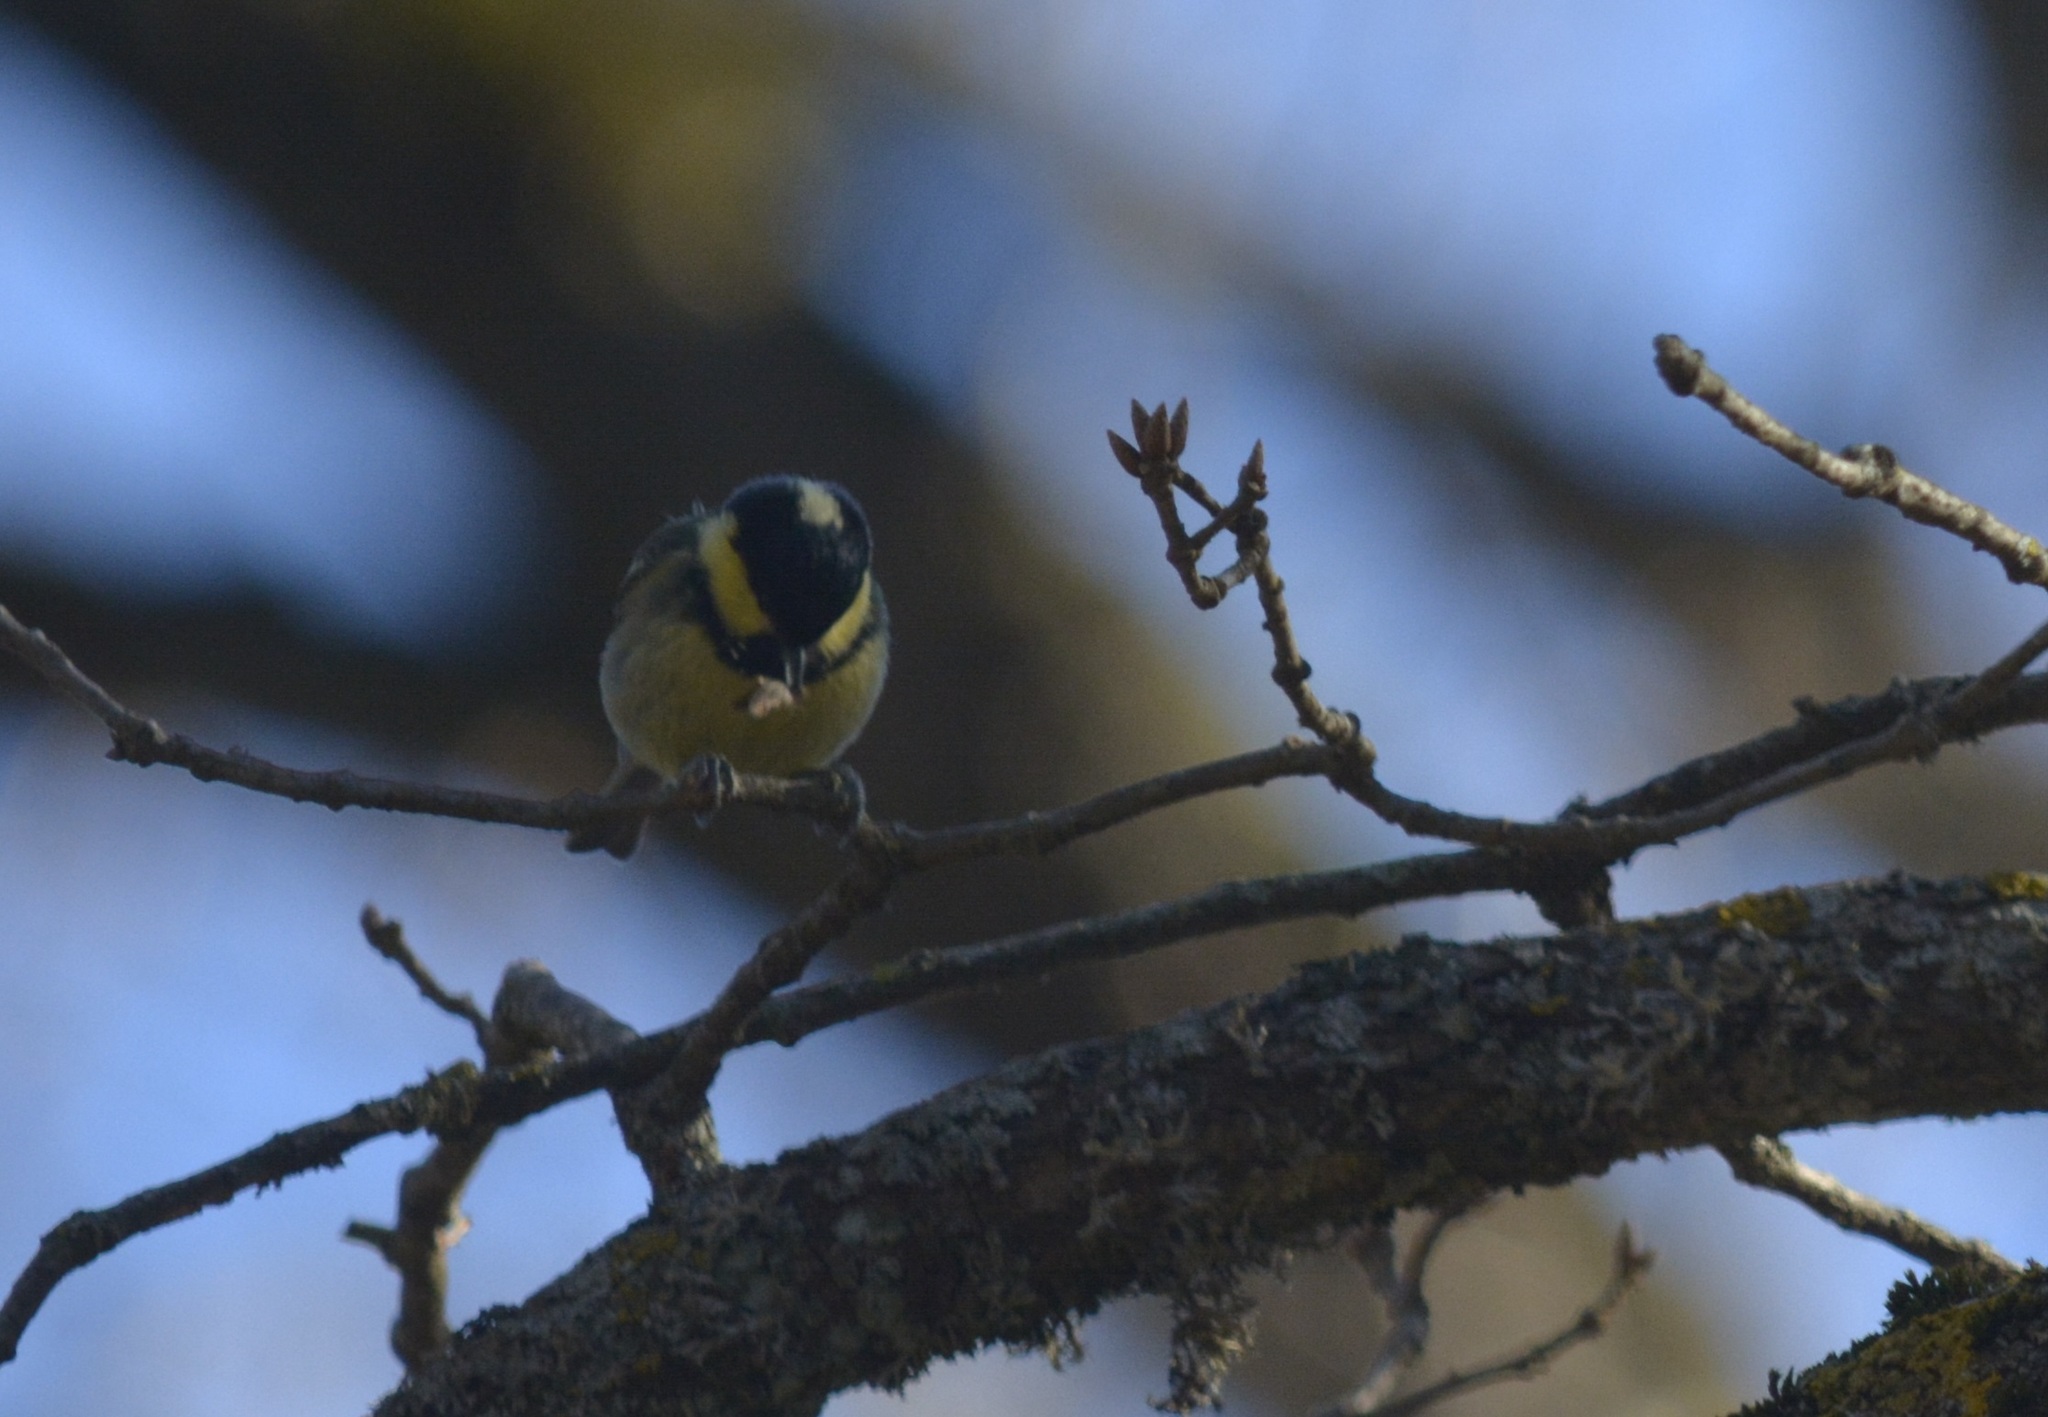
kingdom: Animalia
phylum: Chordata
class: Aves
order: Passeriformes
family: Paridae
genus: Periparus
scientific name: Periparus ater
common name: Coal tit
